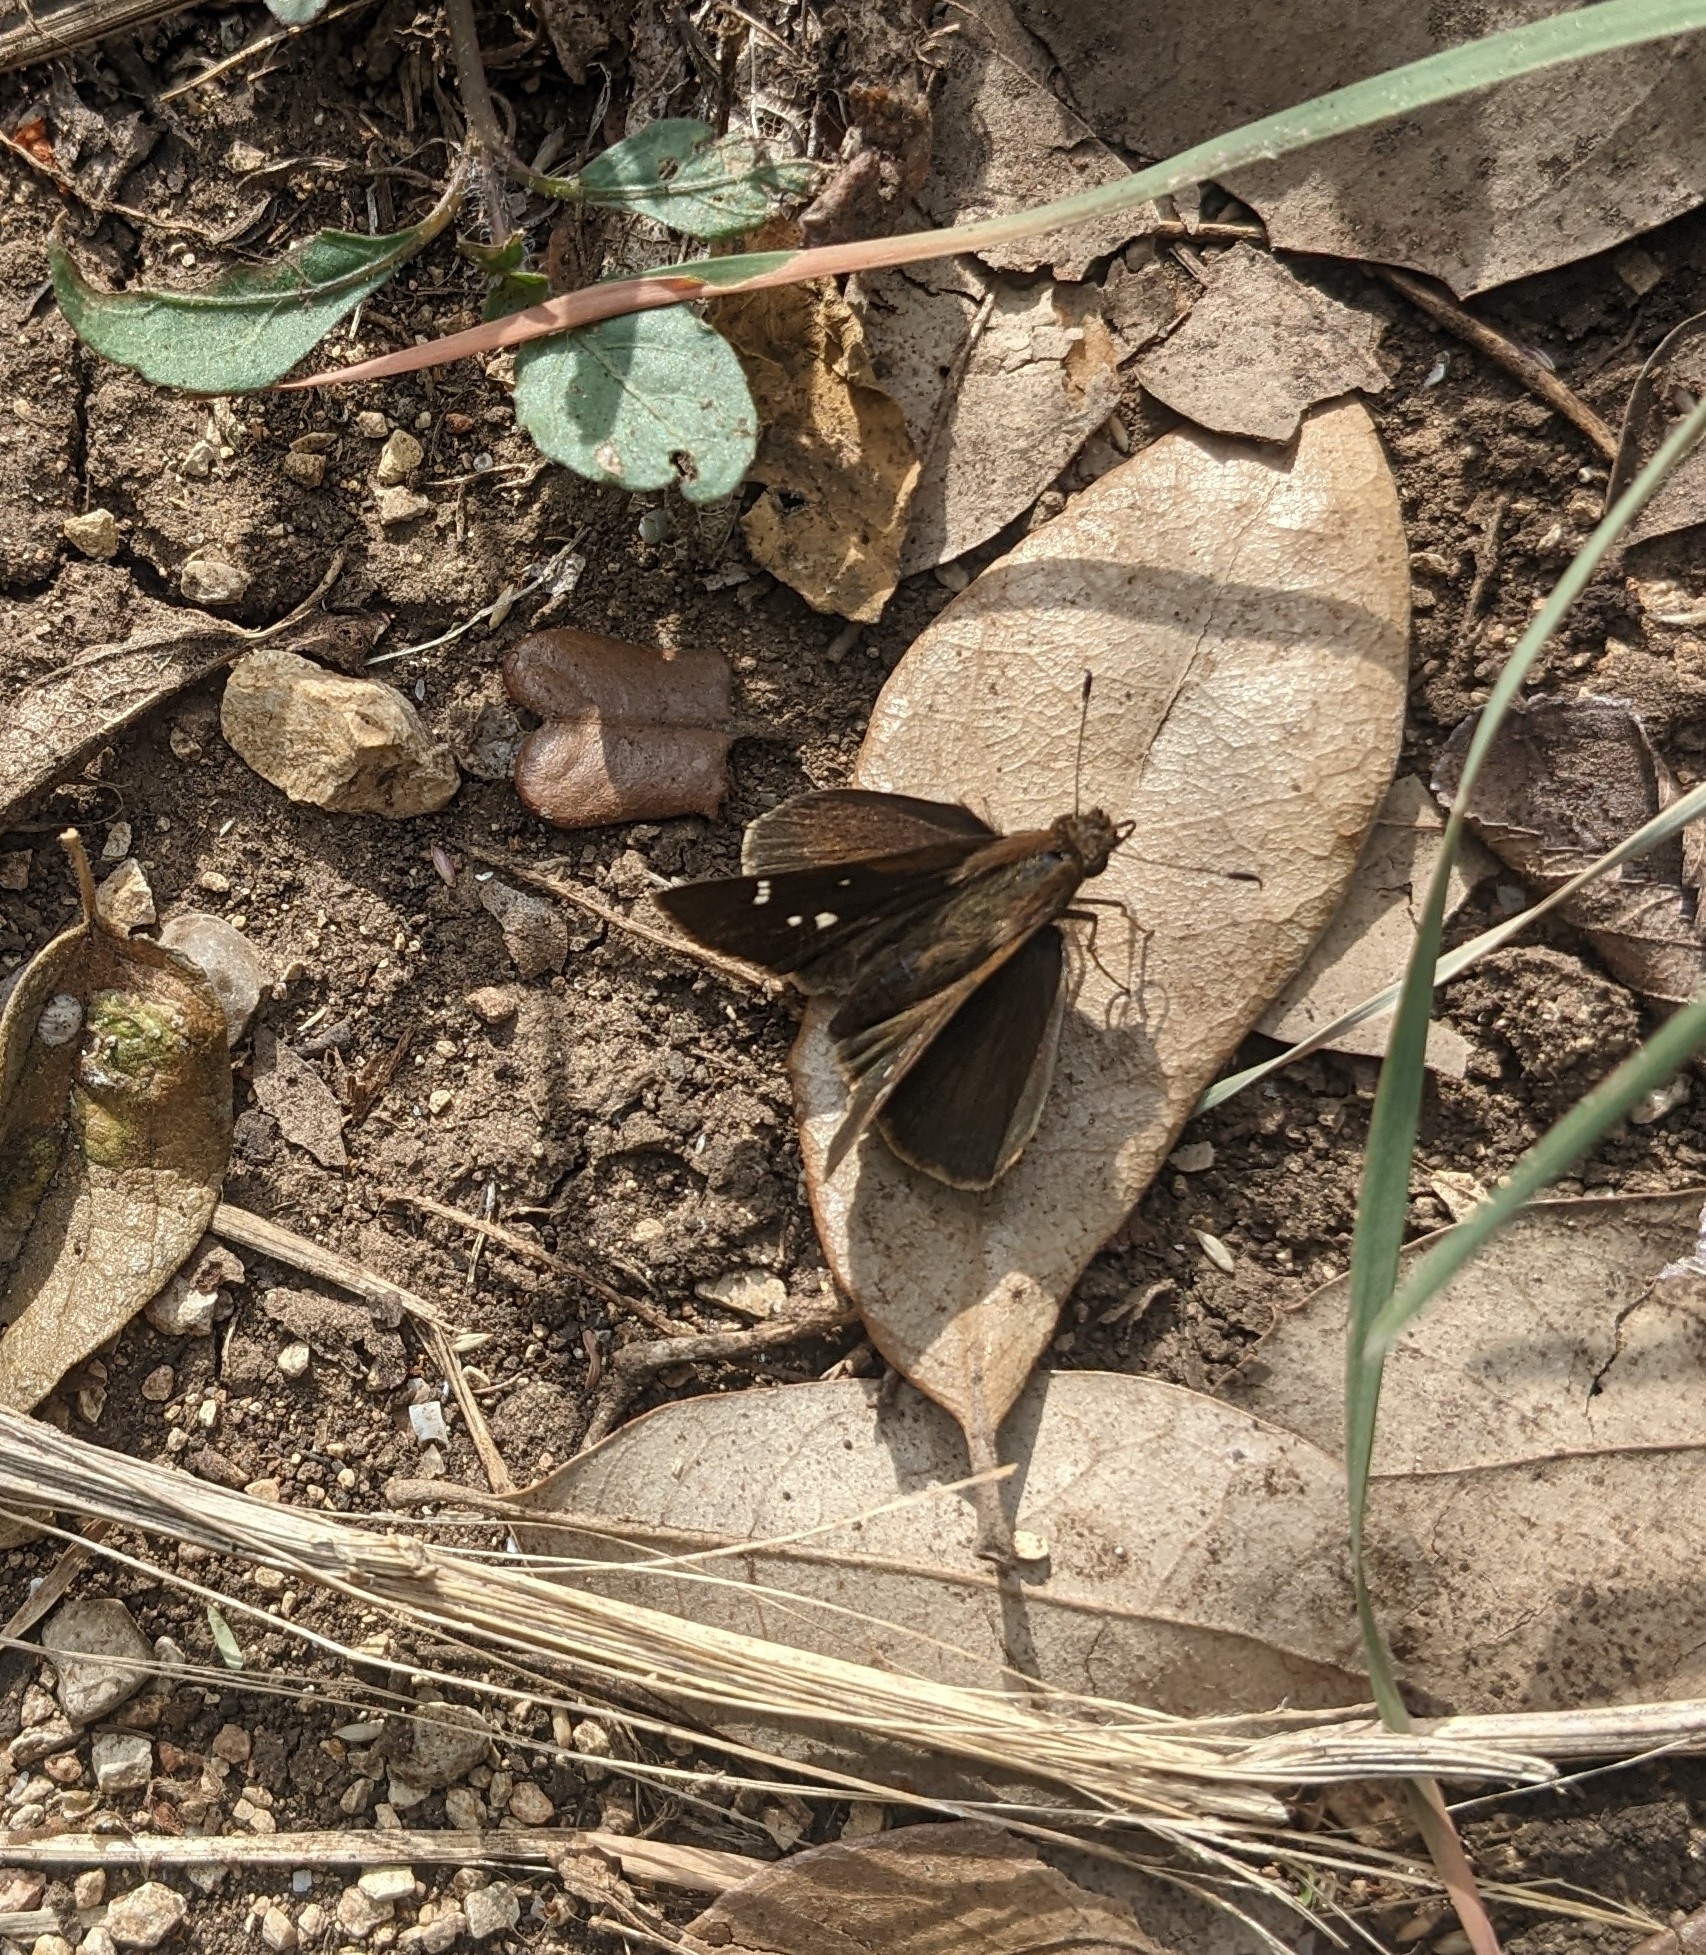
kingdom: Animalia
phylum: Arthropoda
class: Insecta
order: Lepidoptera
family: Hesperiidae
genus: Lerema
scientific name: Lerema accius
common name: Clouded skipper
